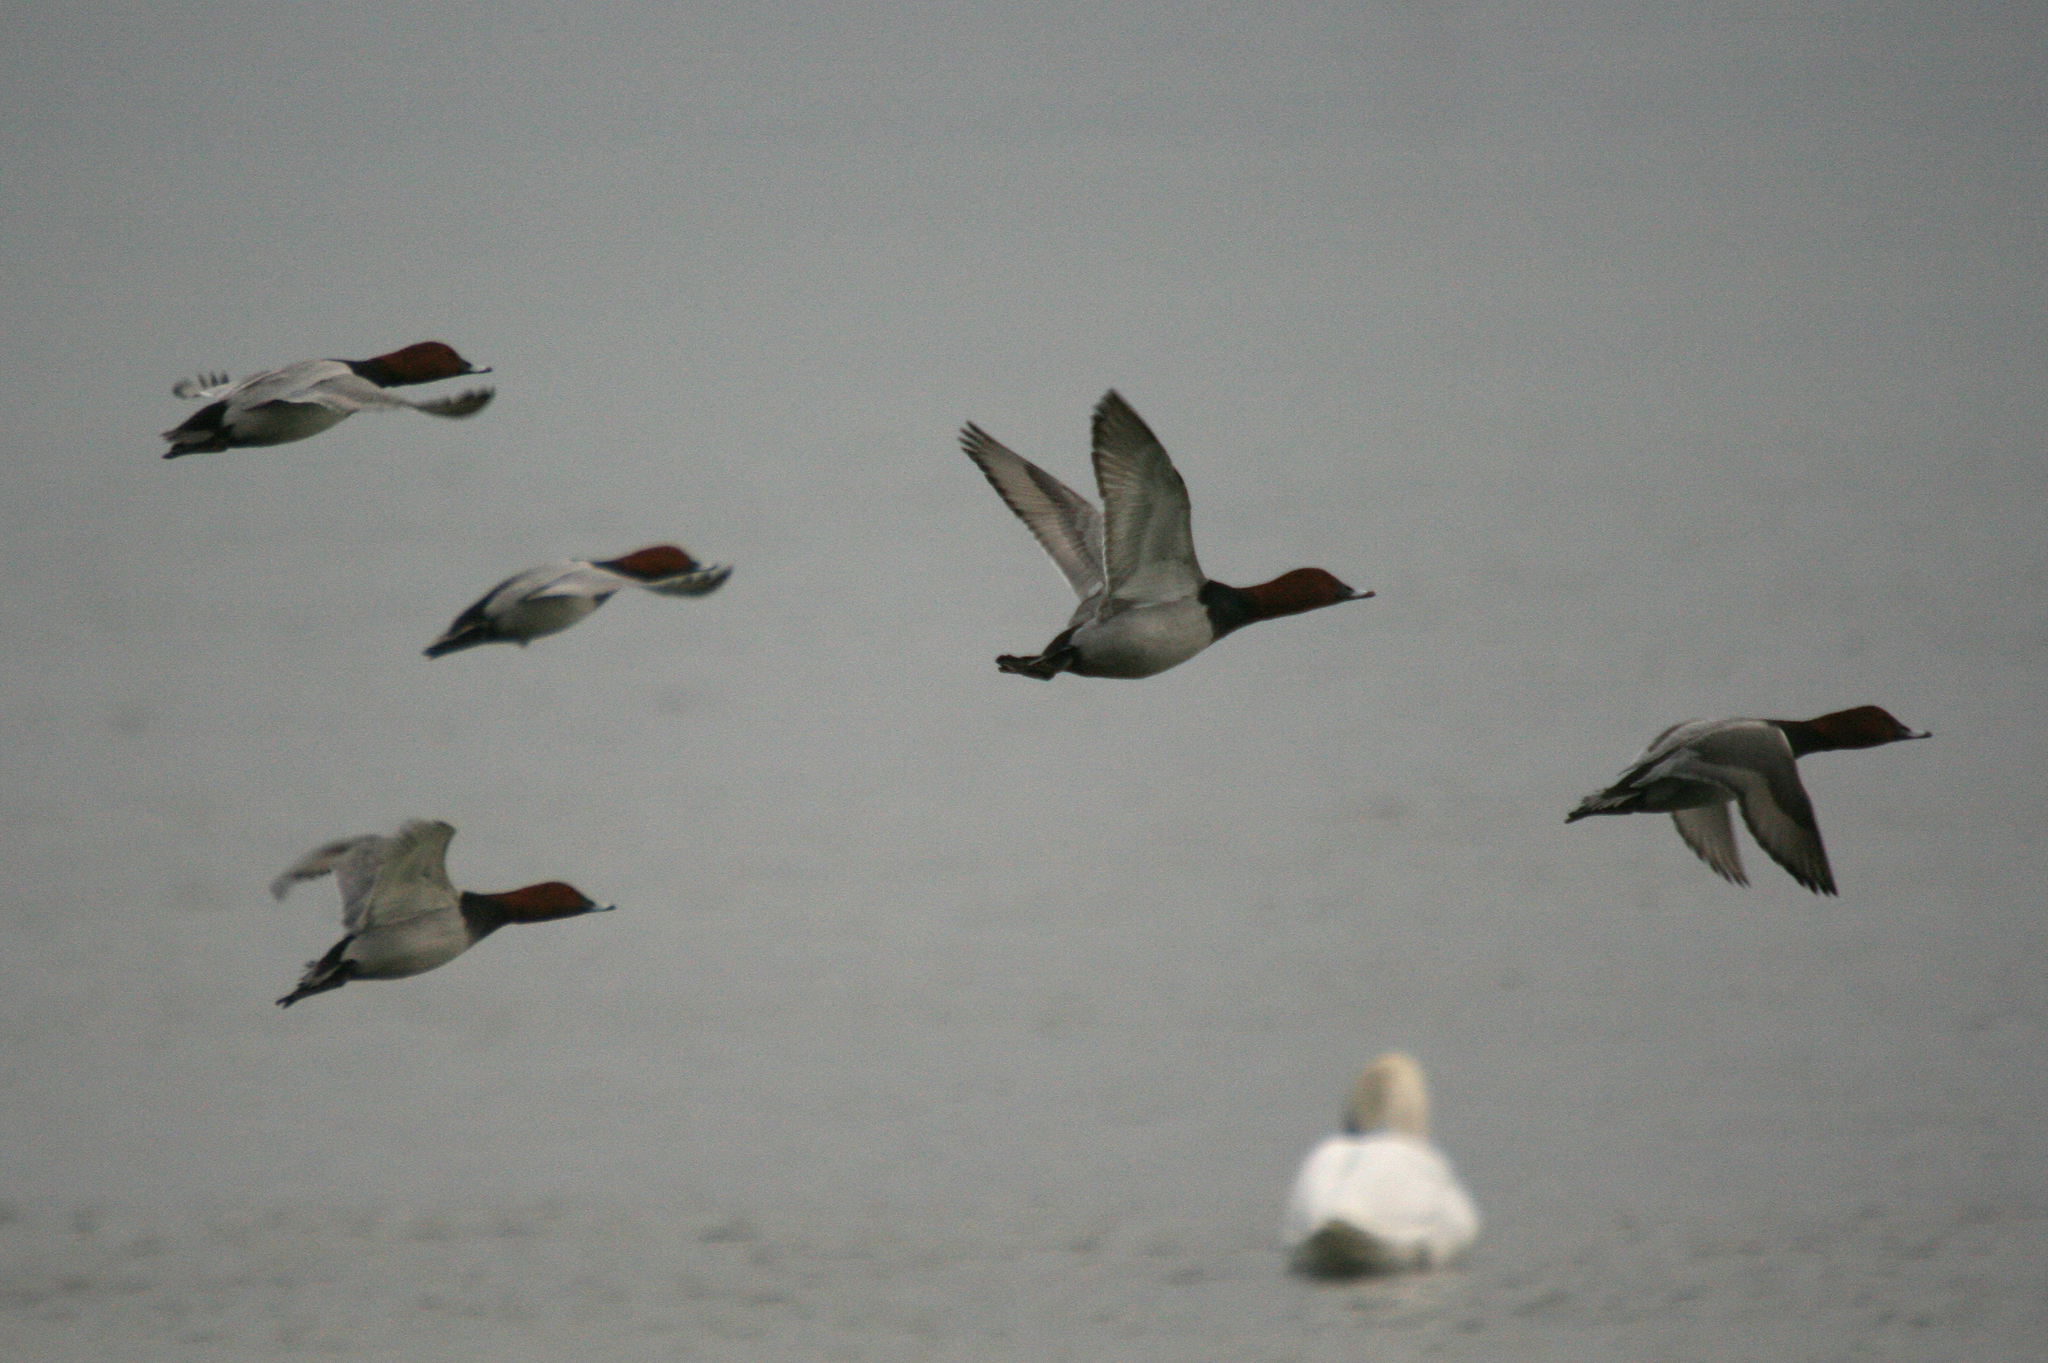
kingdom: Animalia
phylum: Chordata
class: Aves
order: Anseriformes
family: Anatidae
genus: Aythya
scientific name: Aythya ferina
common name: Common pochard
